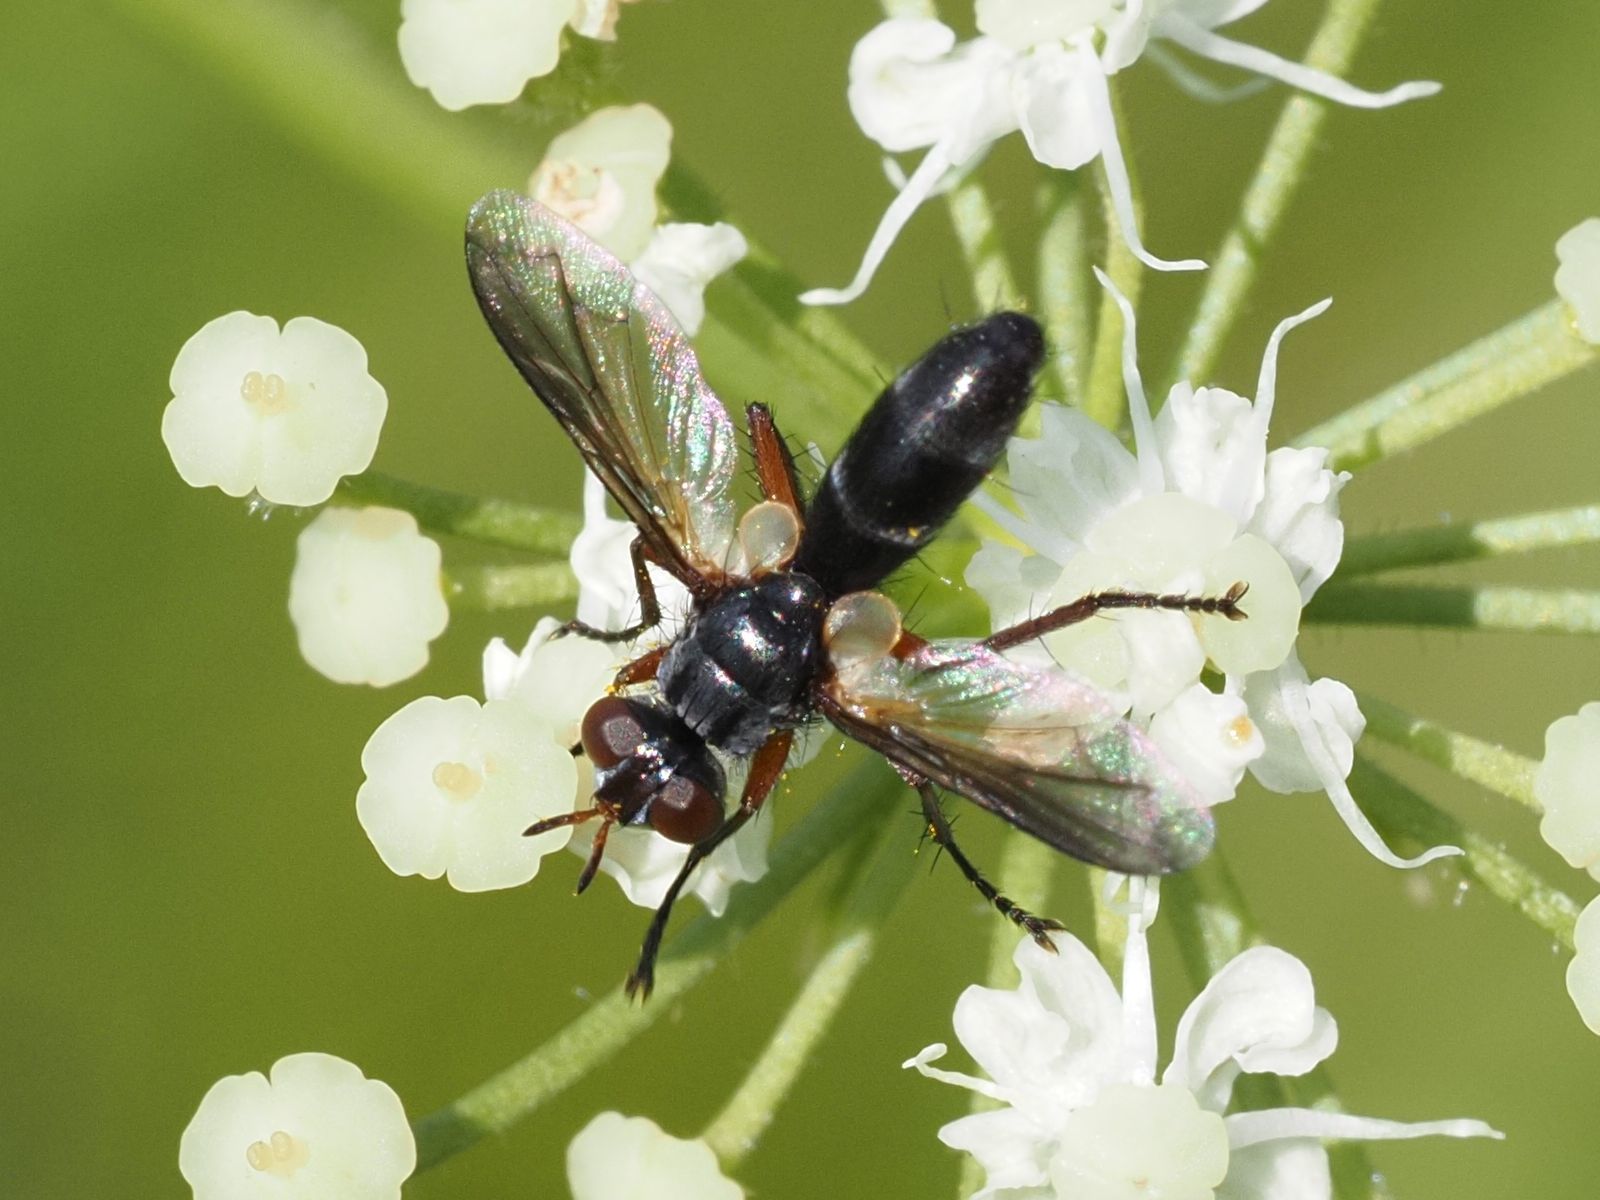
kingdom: Animalia
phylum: Arthropoda
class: Insecta
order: Diptera
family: Tachinidae
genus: Cylindromyia
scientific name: Cylindromyia rufipes
